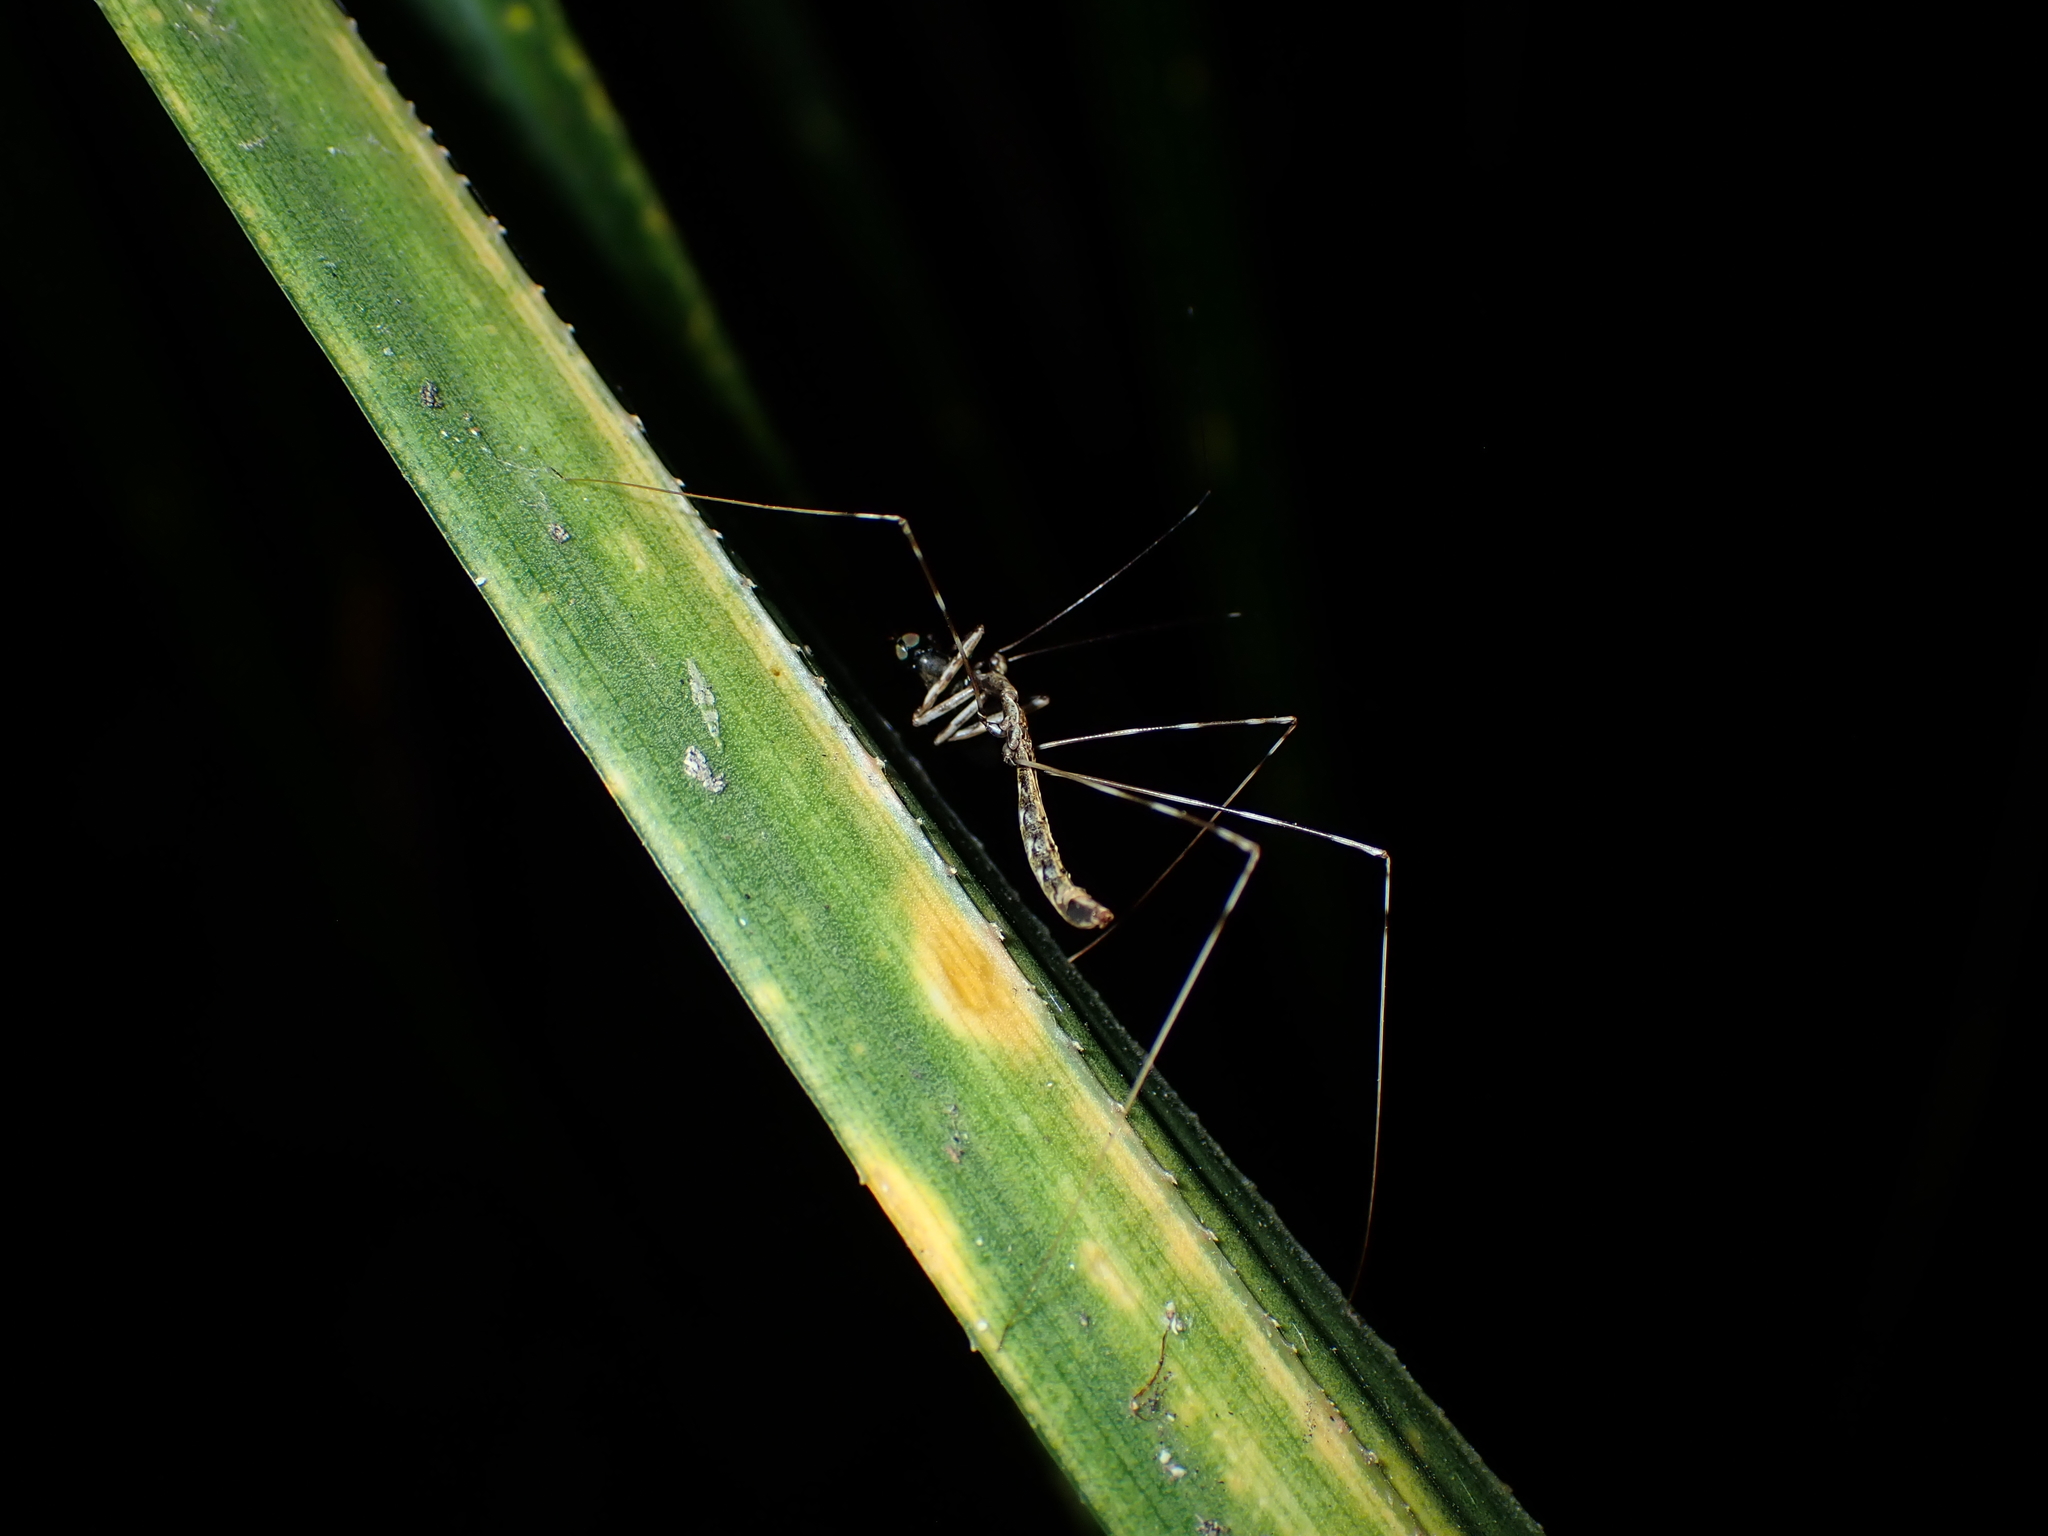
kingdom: Animalia
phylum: Arthropoda
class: Insecta
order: Hemiptera
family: Reduviidae
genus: Ploiaria
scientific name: Ploiaria antipodum
